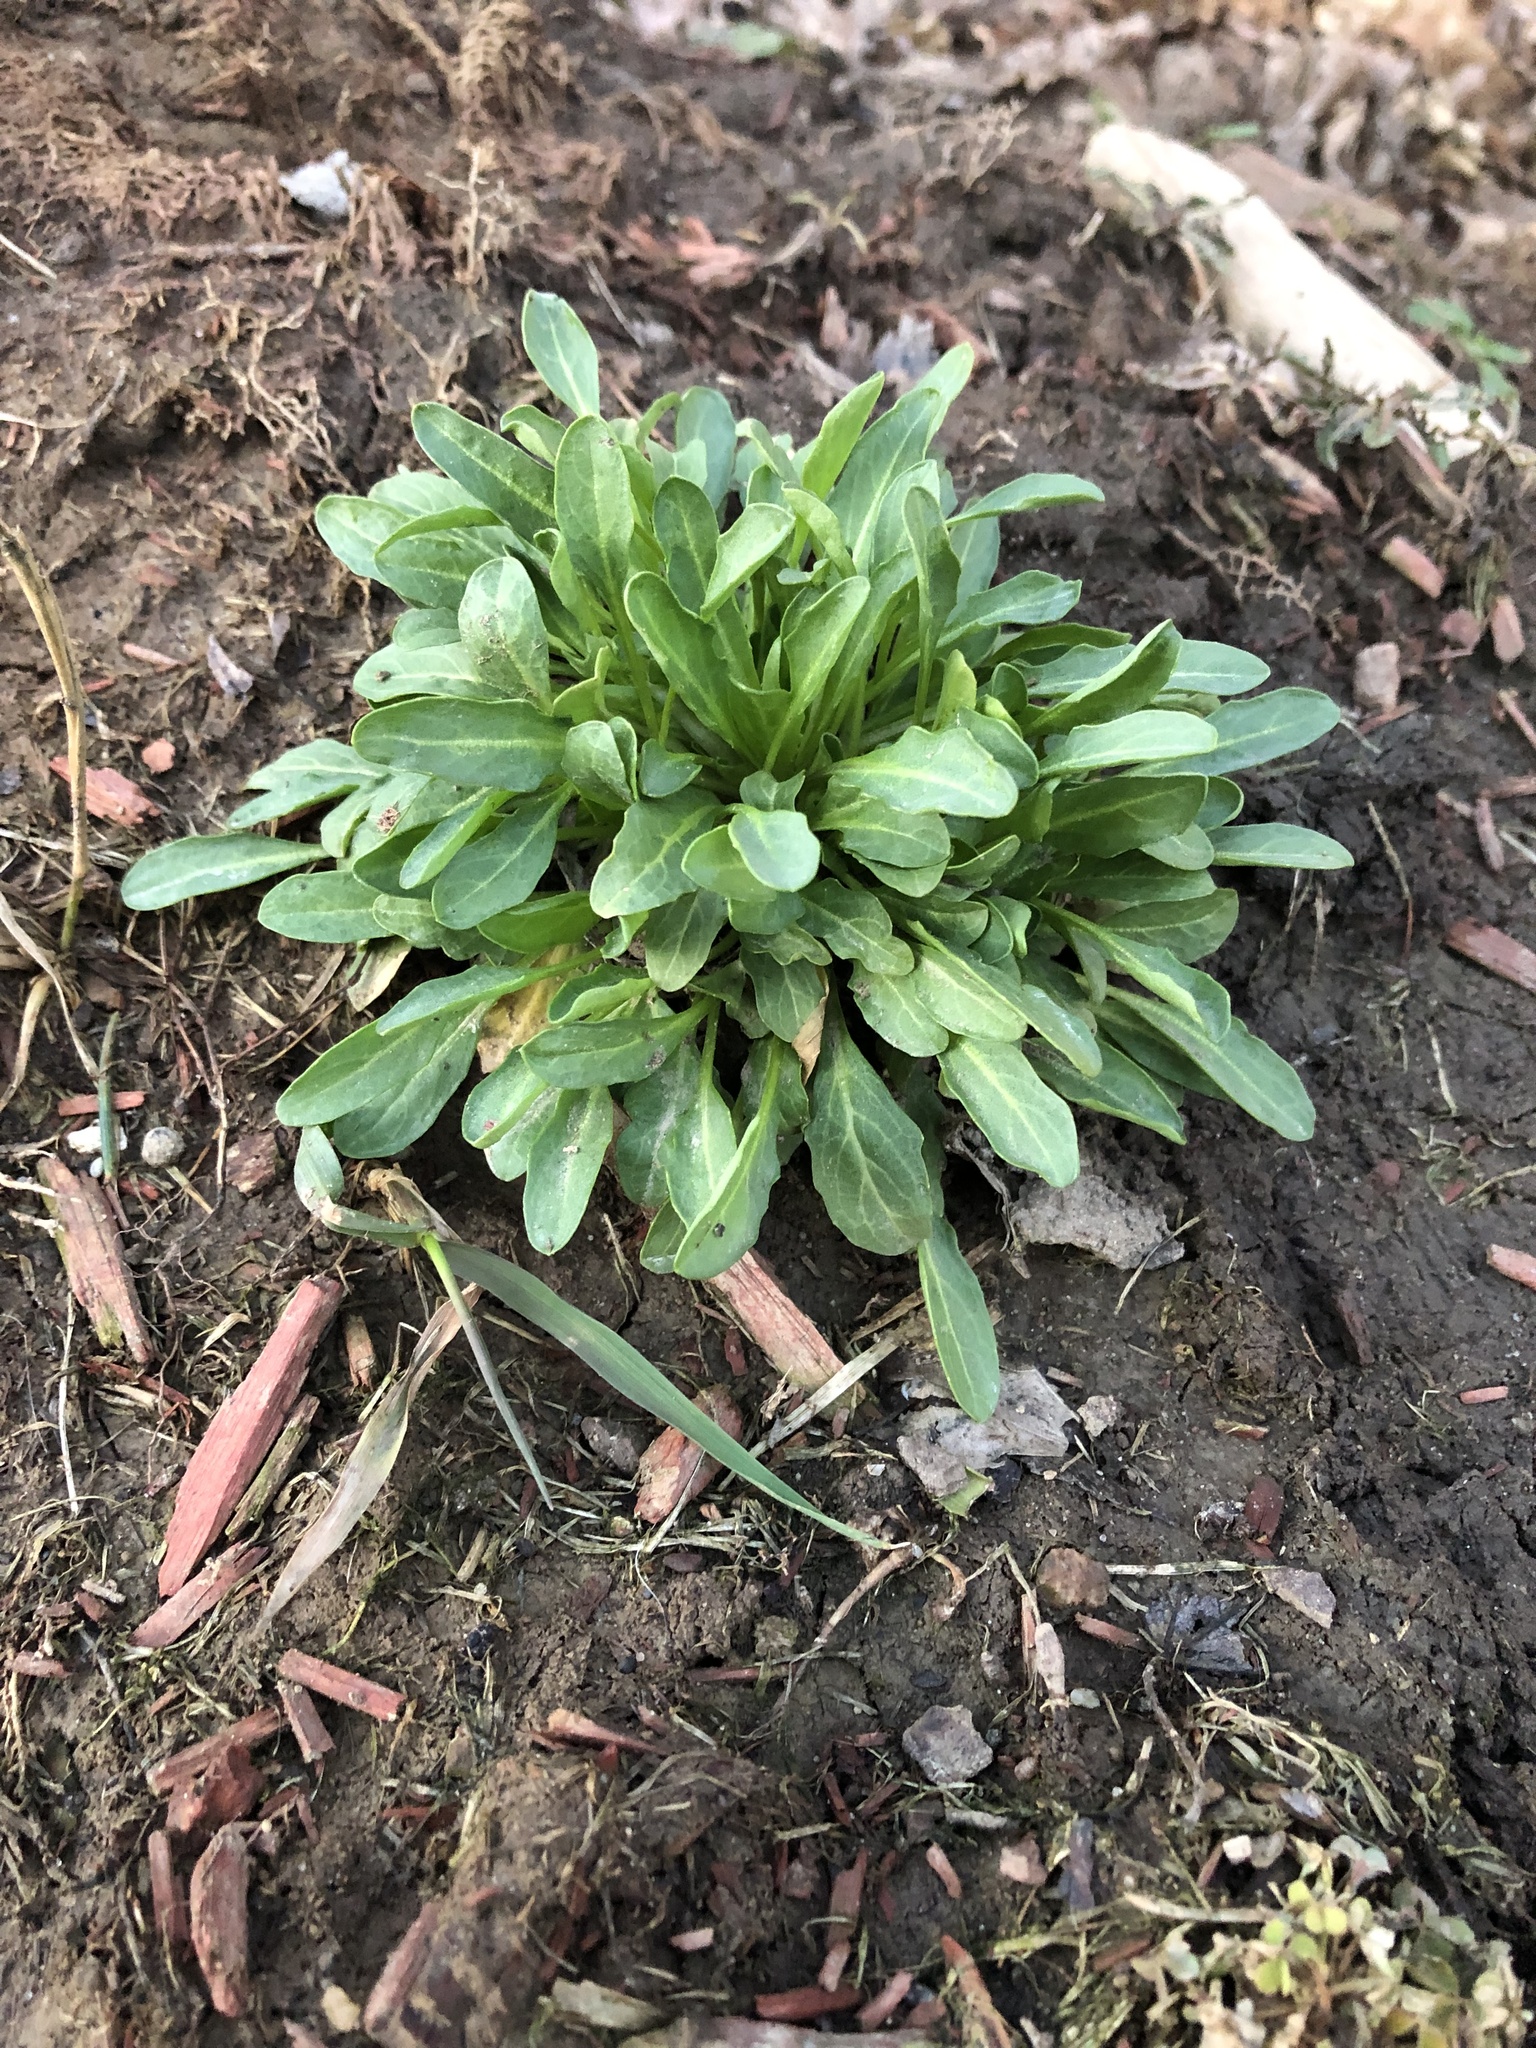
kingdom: Plantae
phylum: Tracheophyta
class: Magnoliopsida
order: Brassicales
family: Brassicaceae
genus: Thlaspi
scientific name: Thlaspi arvense
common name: Field pennycress
